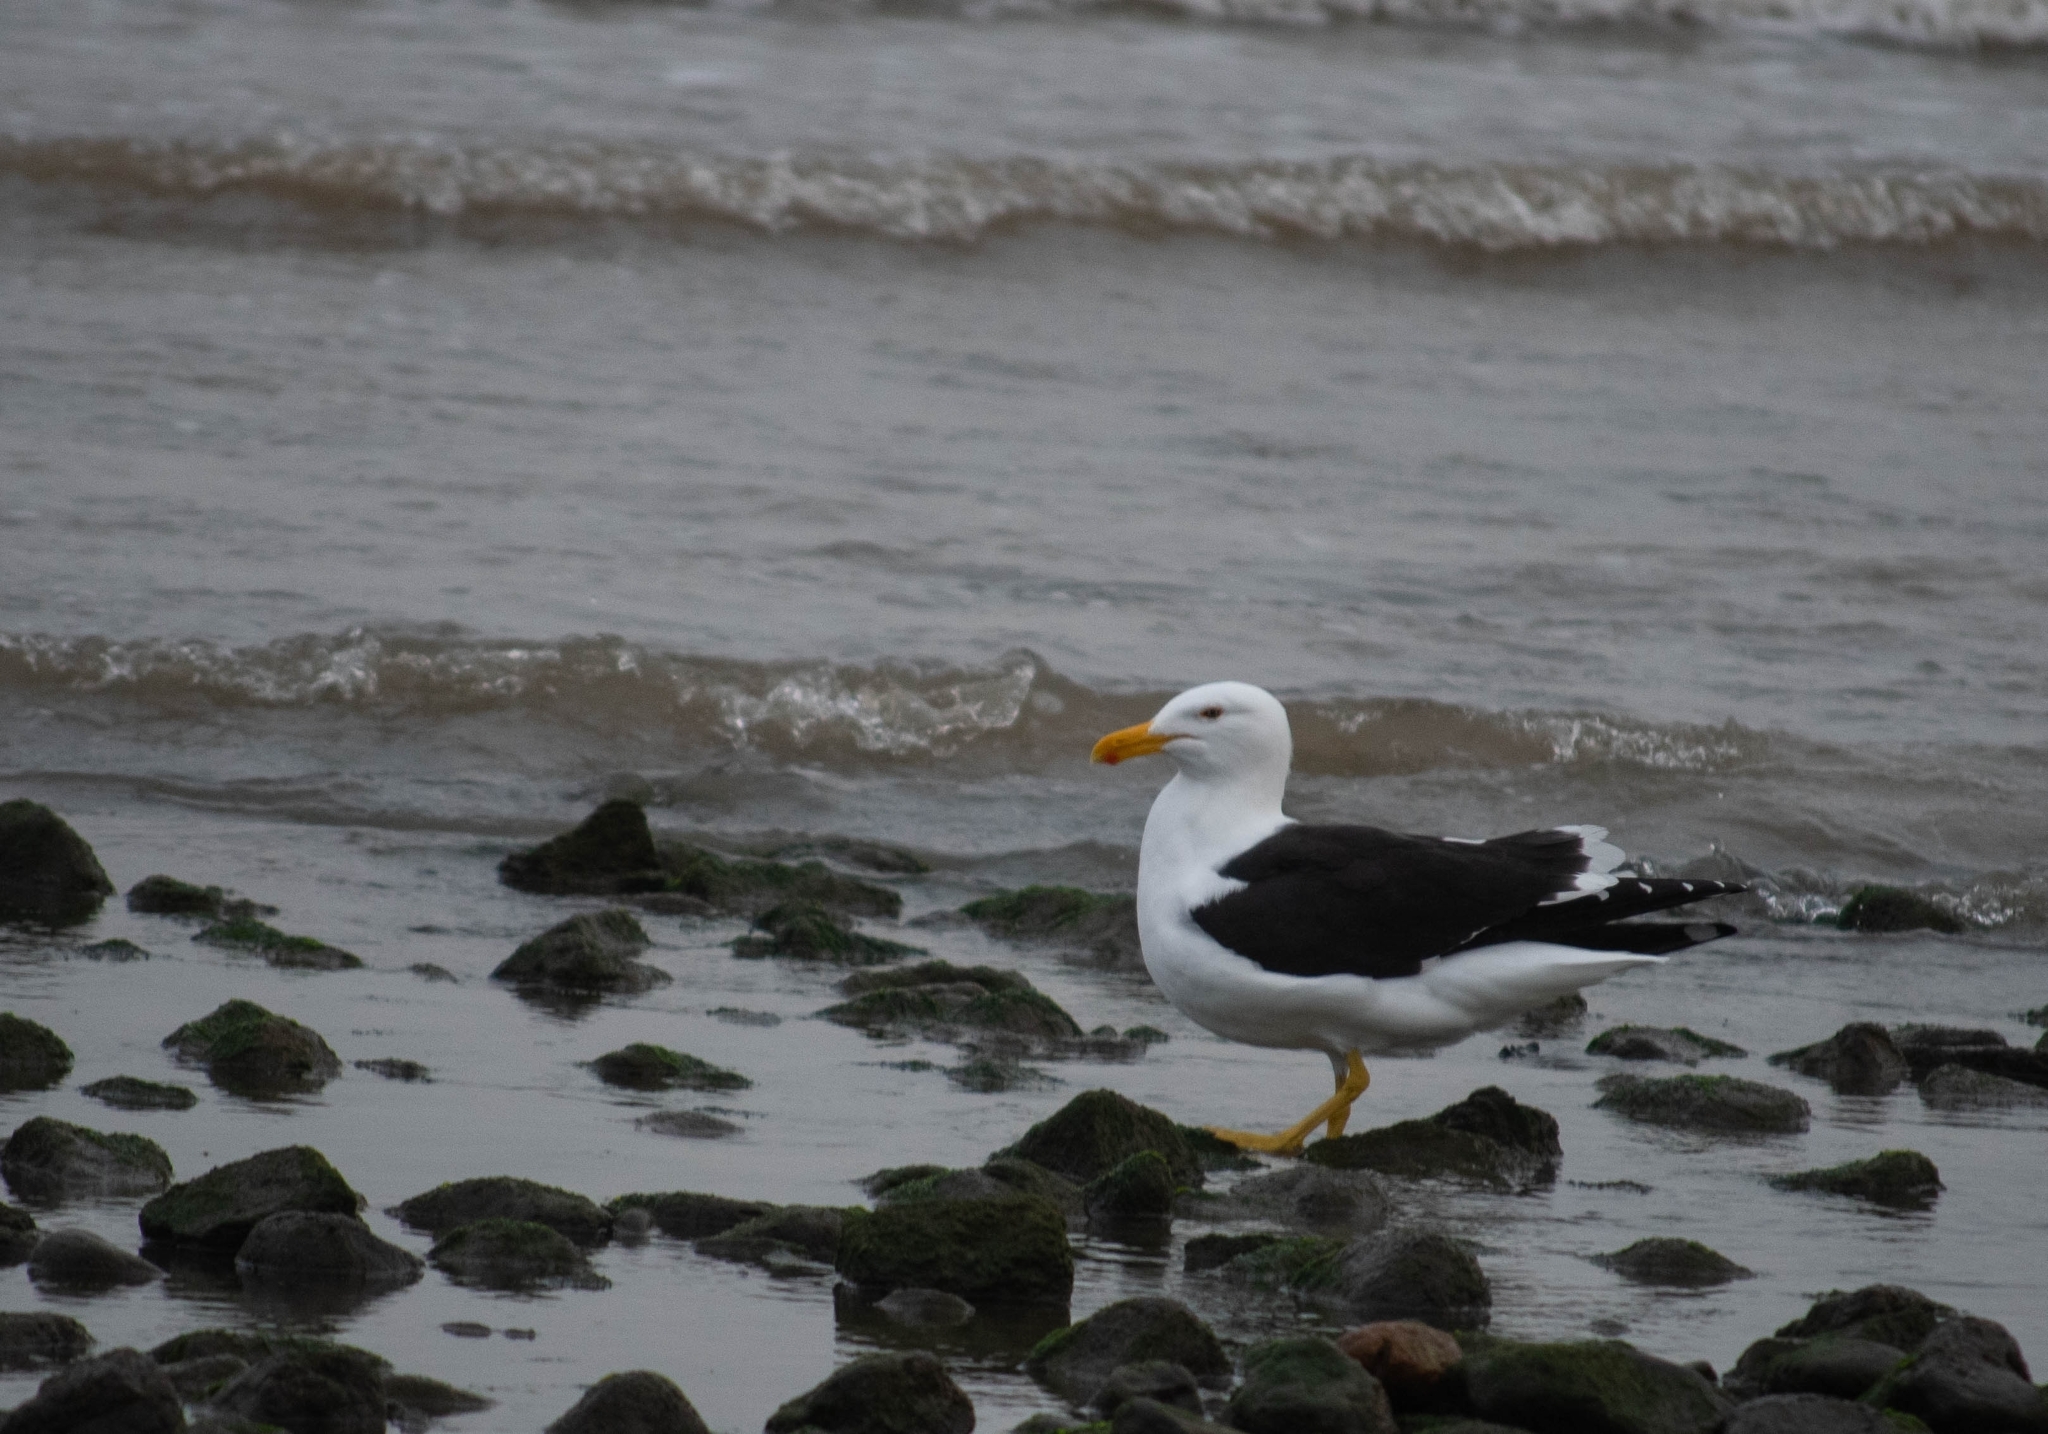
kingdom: Animalia
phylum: Chordata
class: Aves
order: Charadriiformes
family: Laridae
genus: Larus
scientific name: Larus dominicanus
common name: Kelp gull
